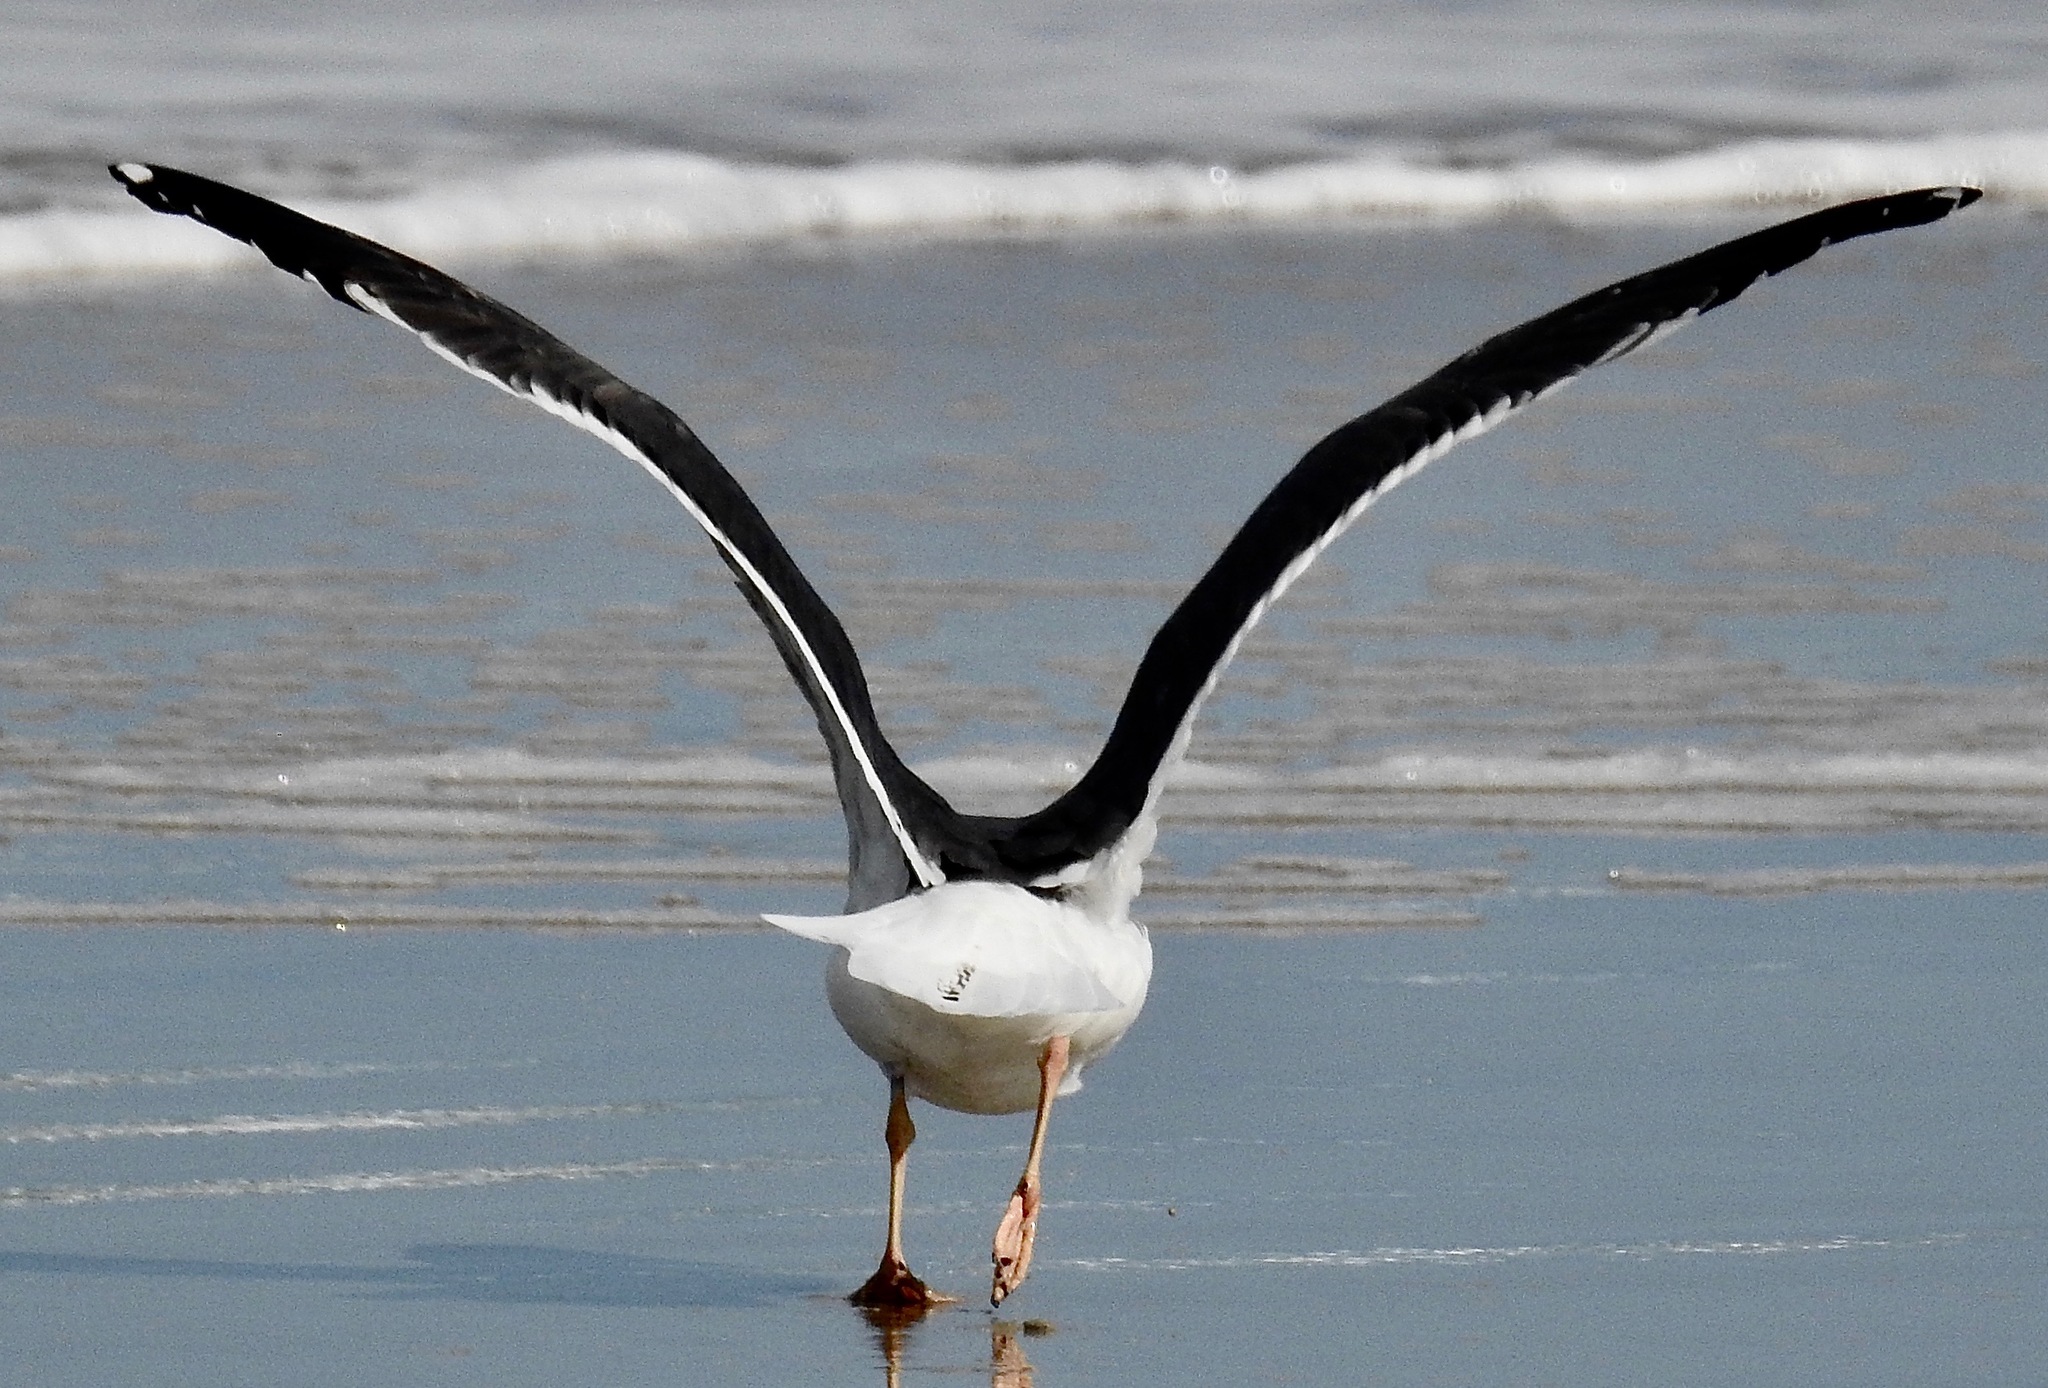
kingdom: Animalia
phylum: Chordata
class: Aves
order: Charadriiformes
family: Laridae
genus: Larus
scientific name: Larus fuscus
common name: Lesser black-backed gull
